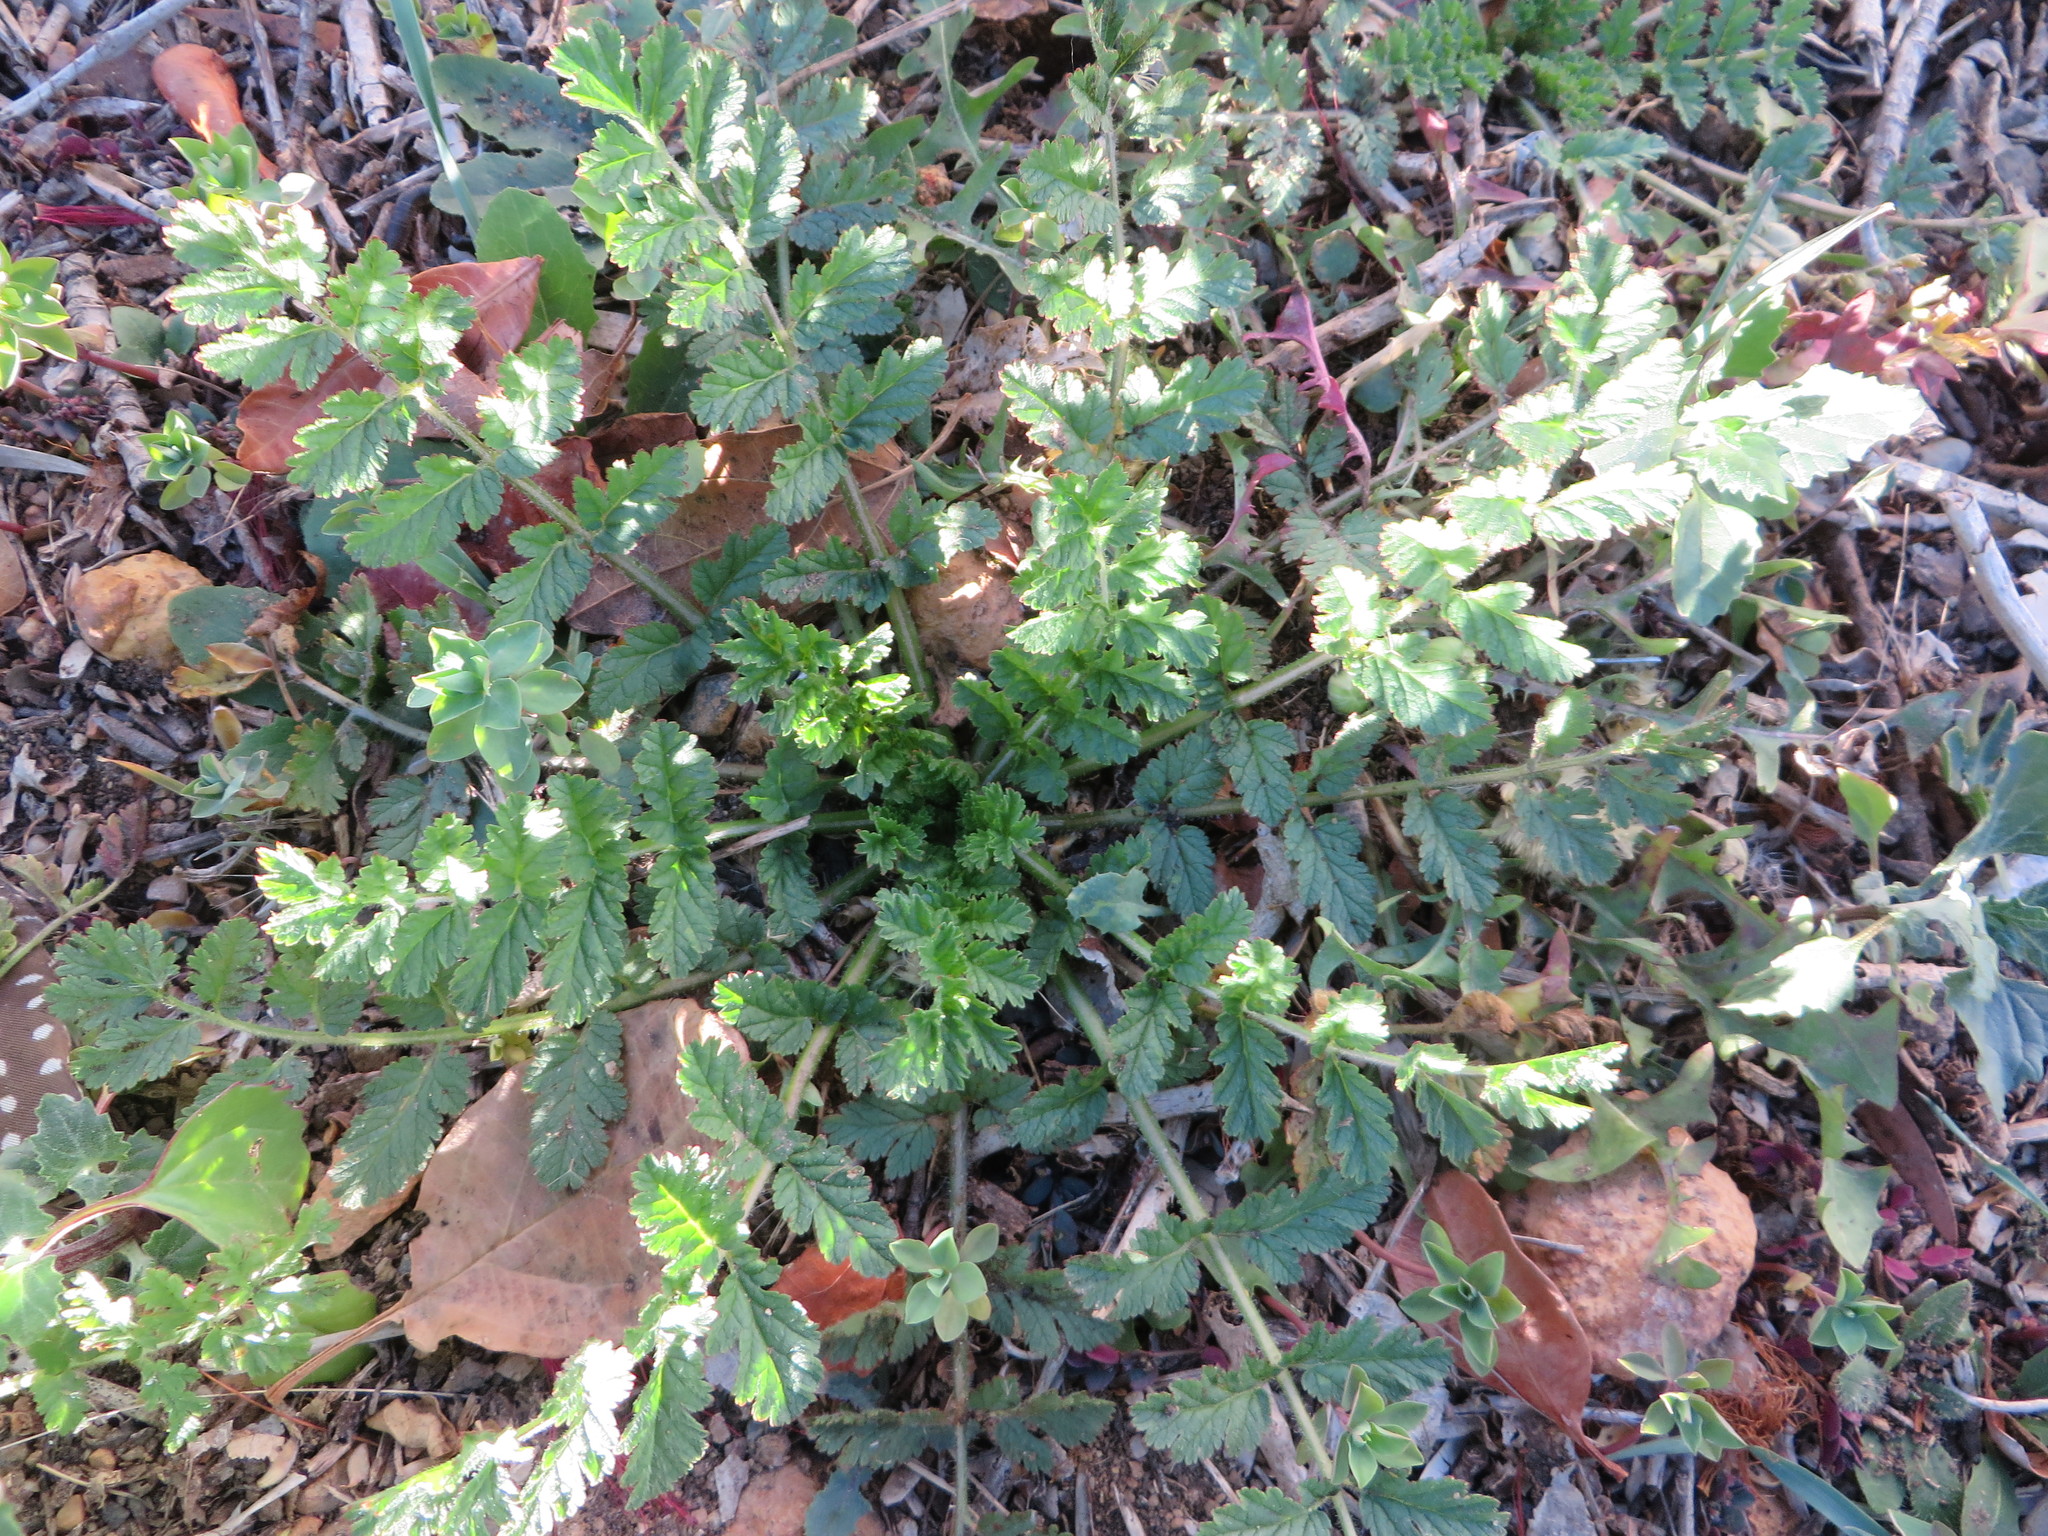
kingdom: Plantae
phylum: Tracheophyta
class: Magnoliopsida
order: Geraniales
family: Geraniaceae
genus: Erodium
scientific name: Erodium moschatum
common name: Musk stork's-bill
